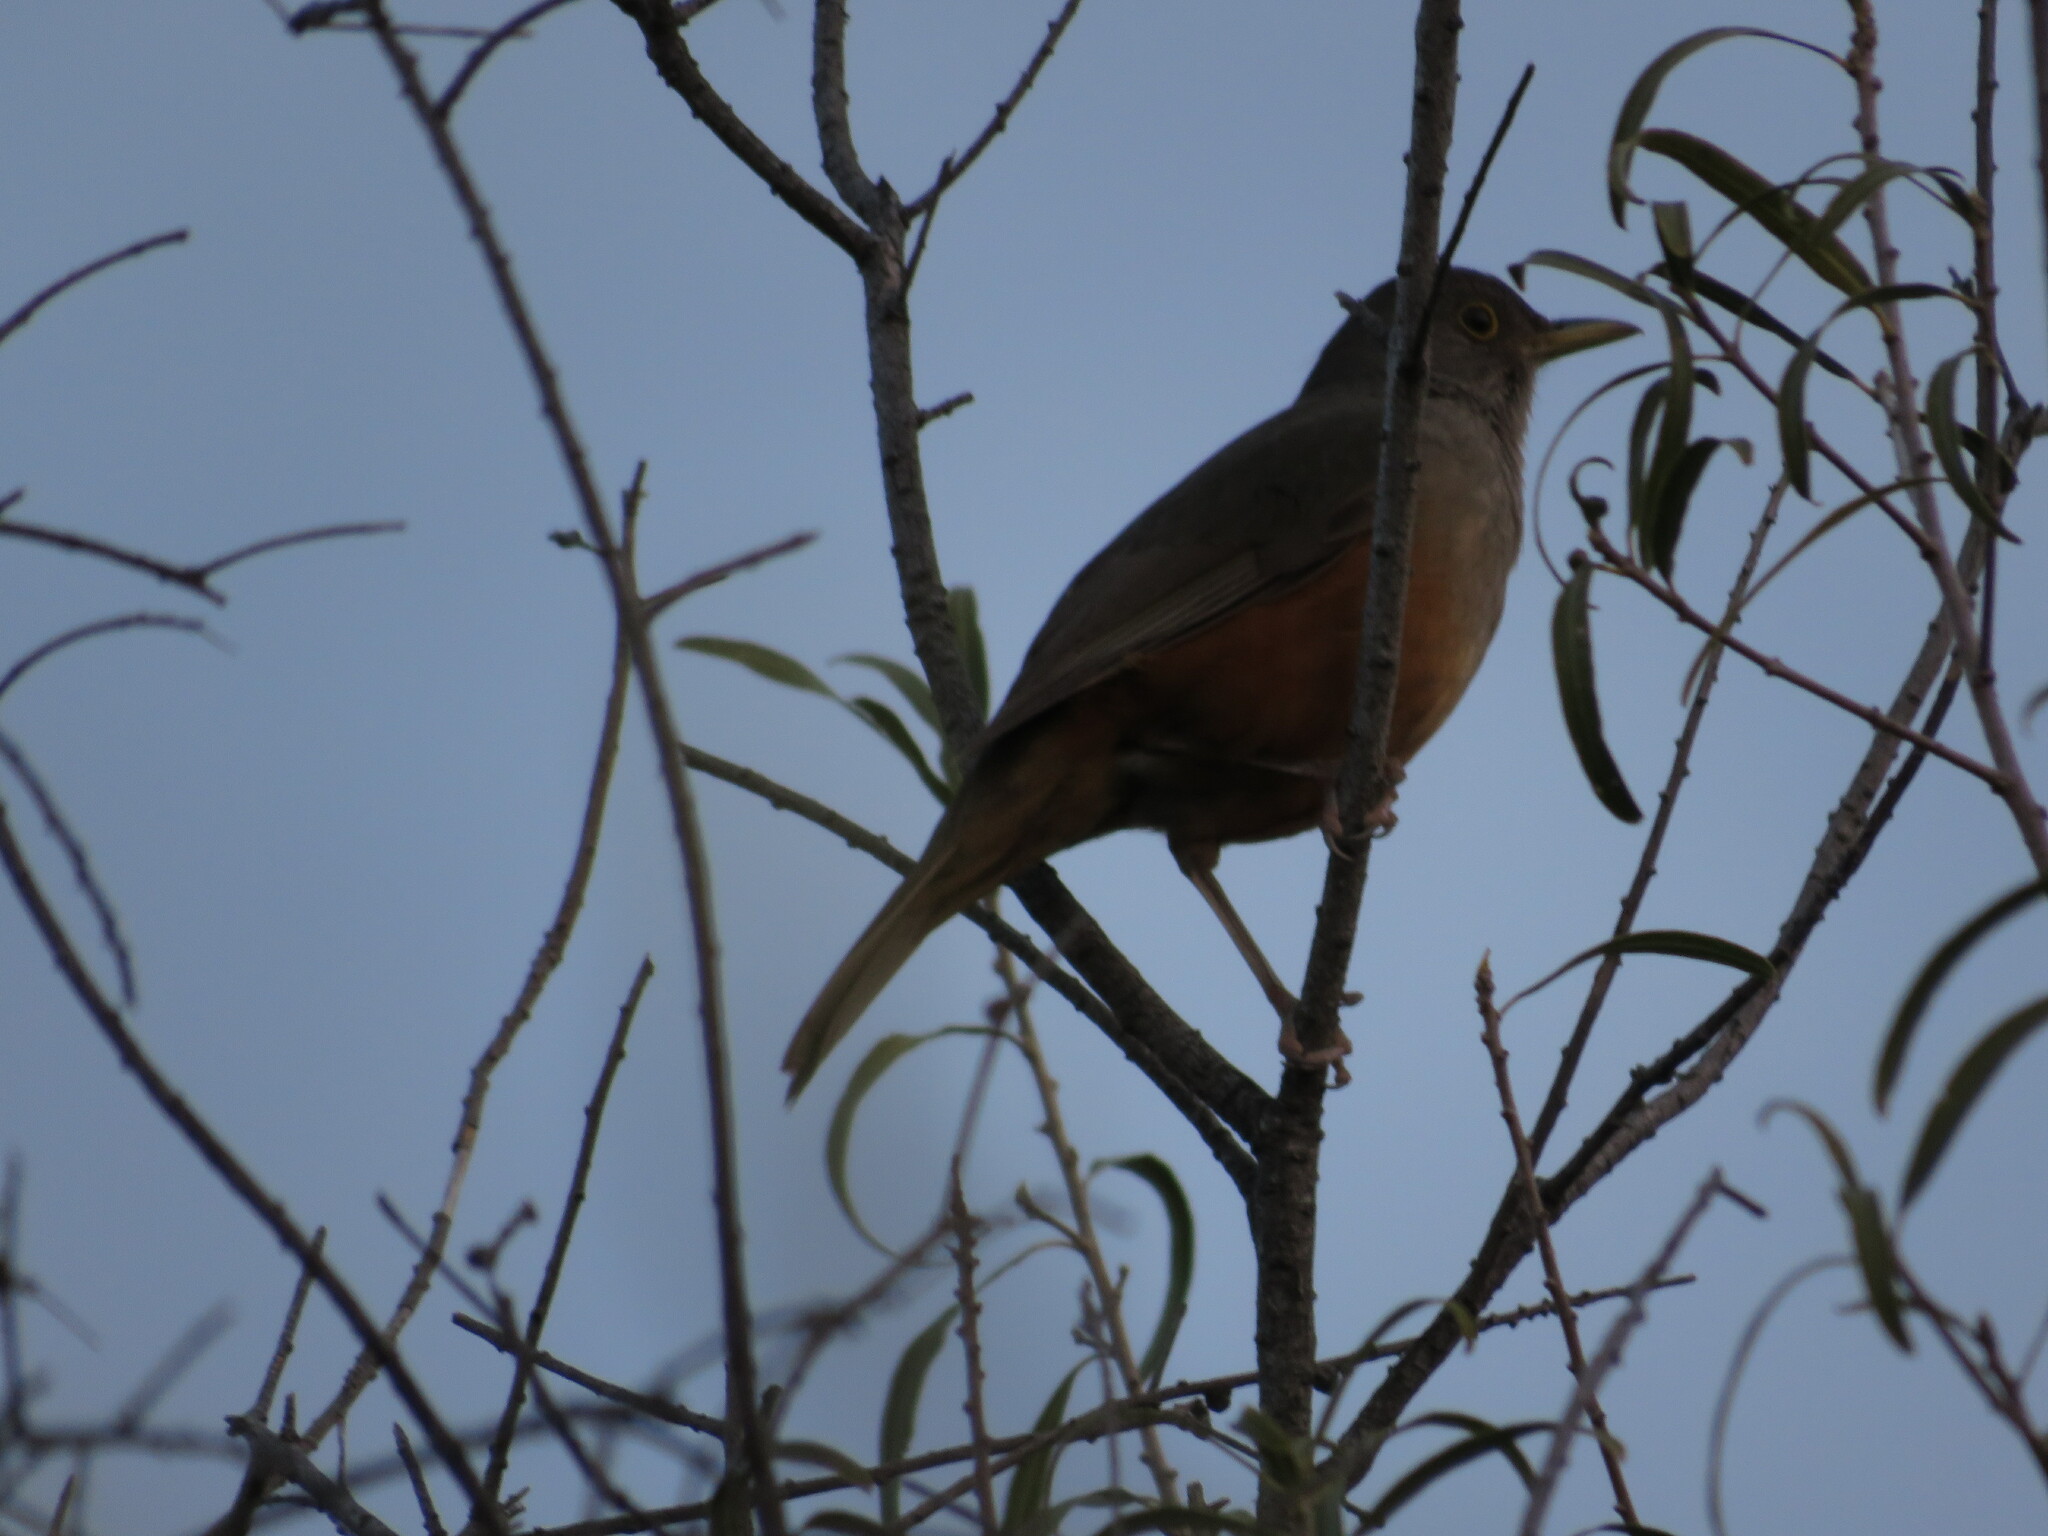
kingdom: Animalia
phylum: Chordata
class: Aves
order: Passeriformes
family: Turdidae
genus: Turdus
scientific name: Turdus rufiventris
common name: Rufous-bellied thrush
